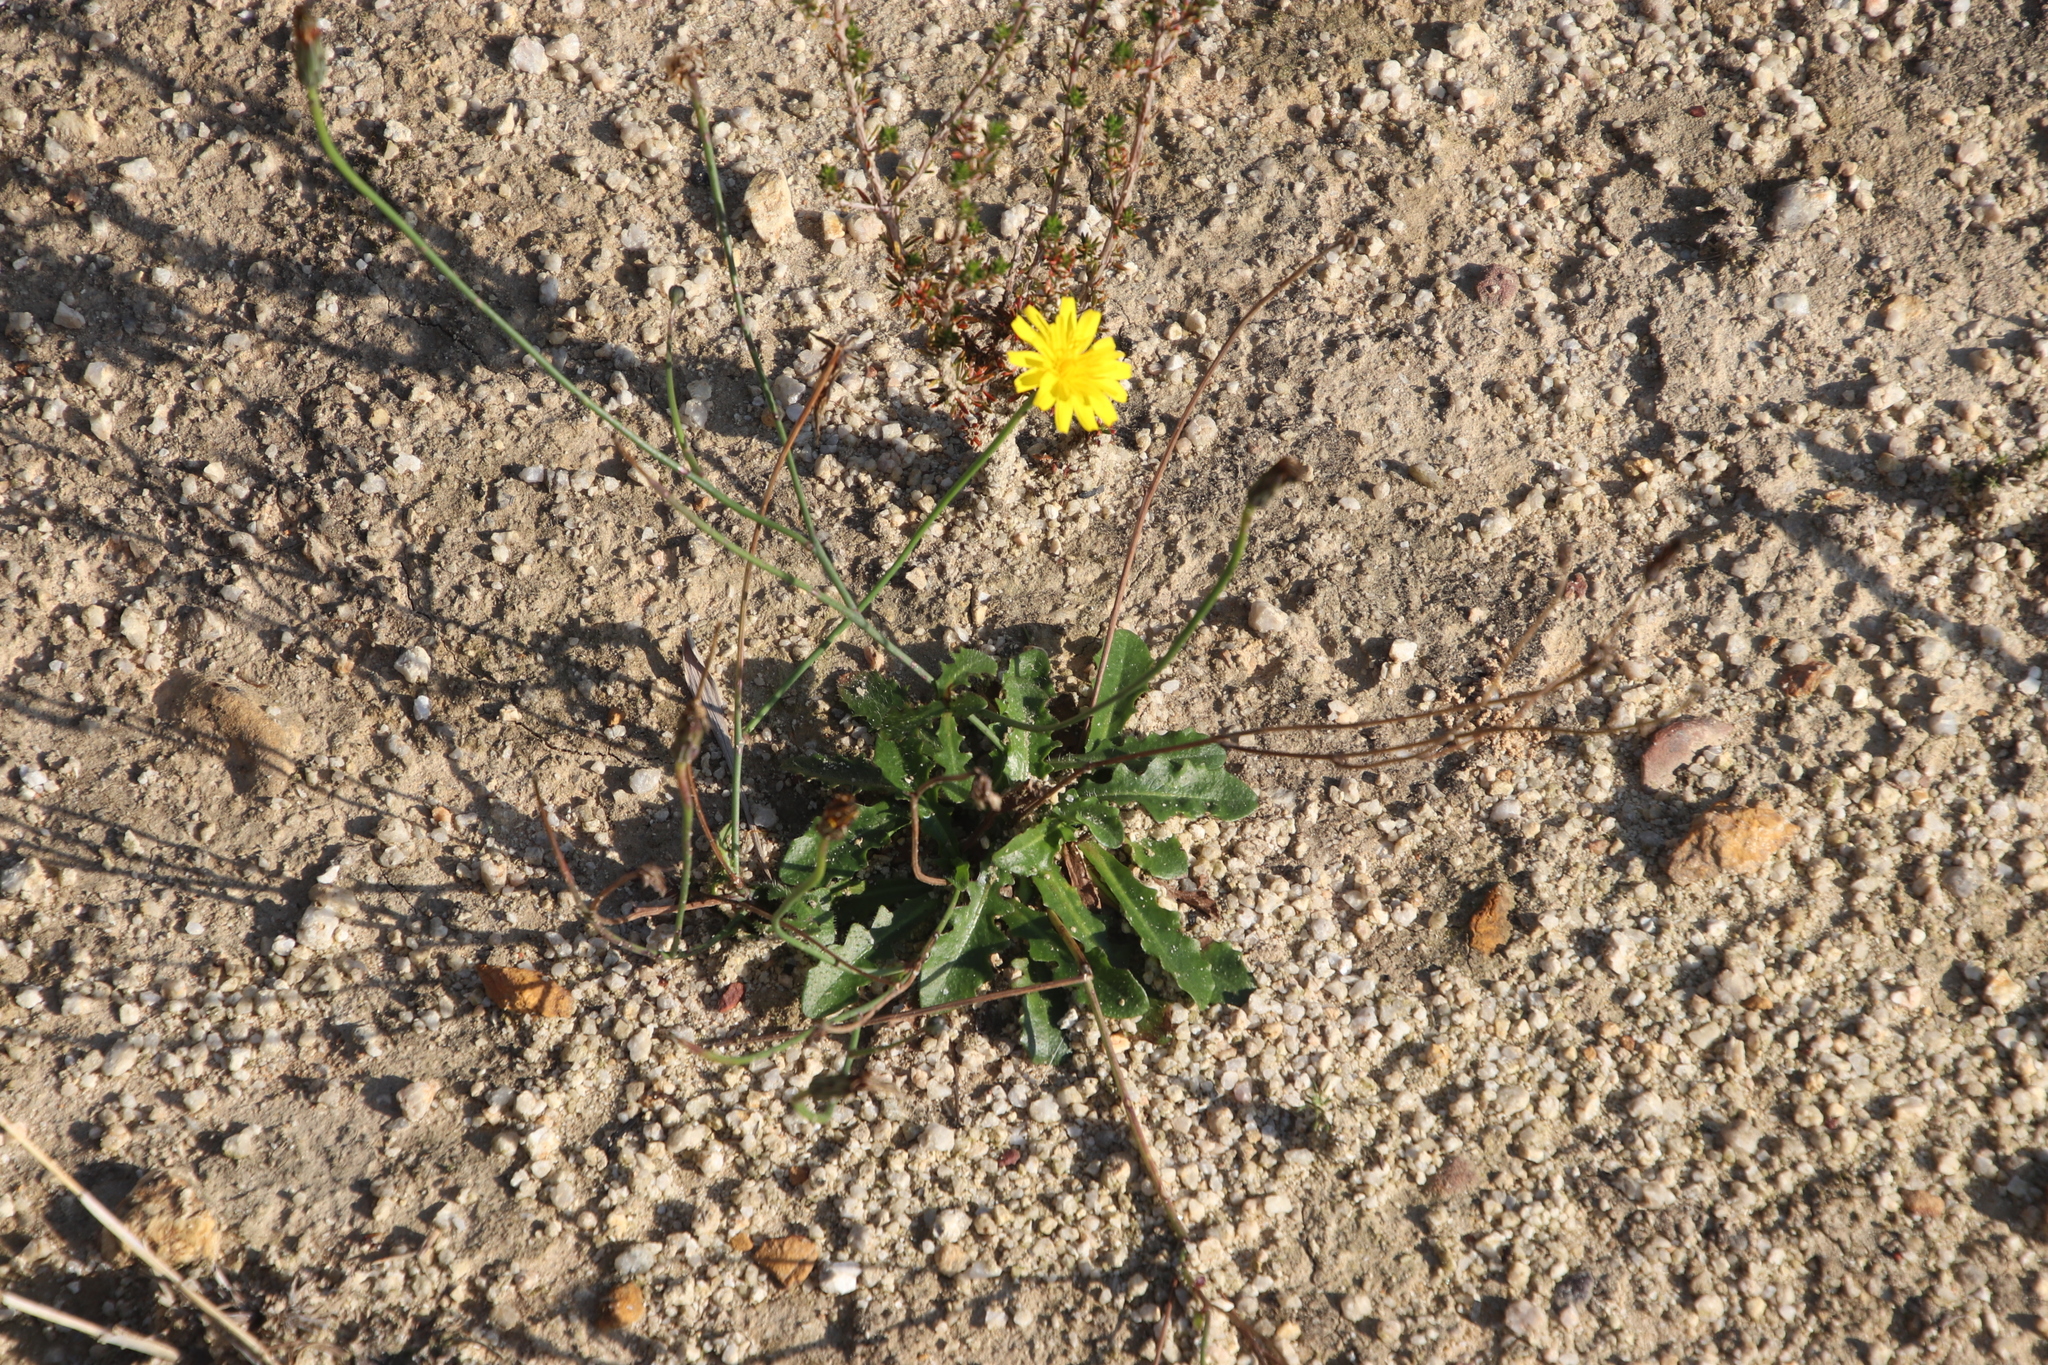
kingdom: Plantae
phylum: Tracheophyta
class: Magnoliopsida
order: Asterales
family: Asteraceae
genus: Hypochaeris
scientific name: Hypochaeris radicata
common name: Flatweed
